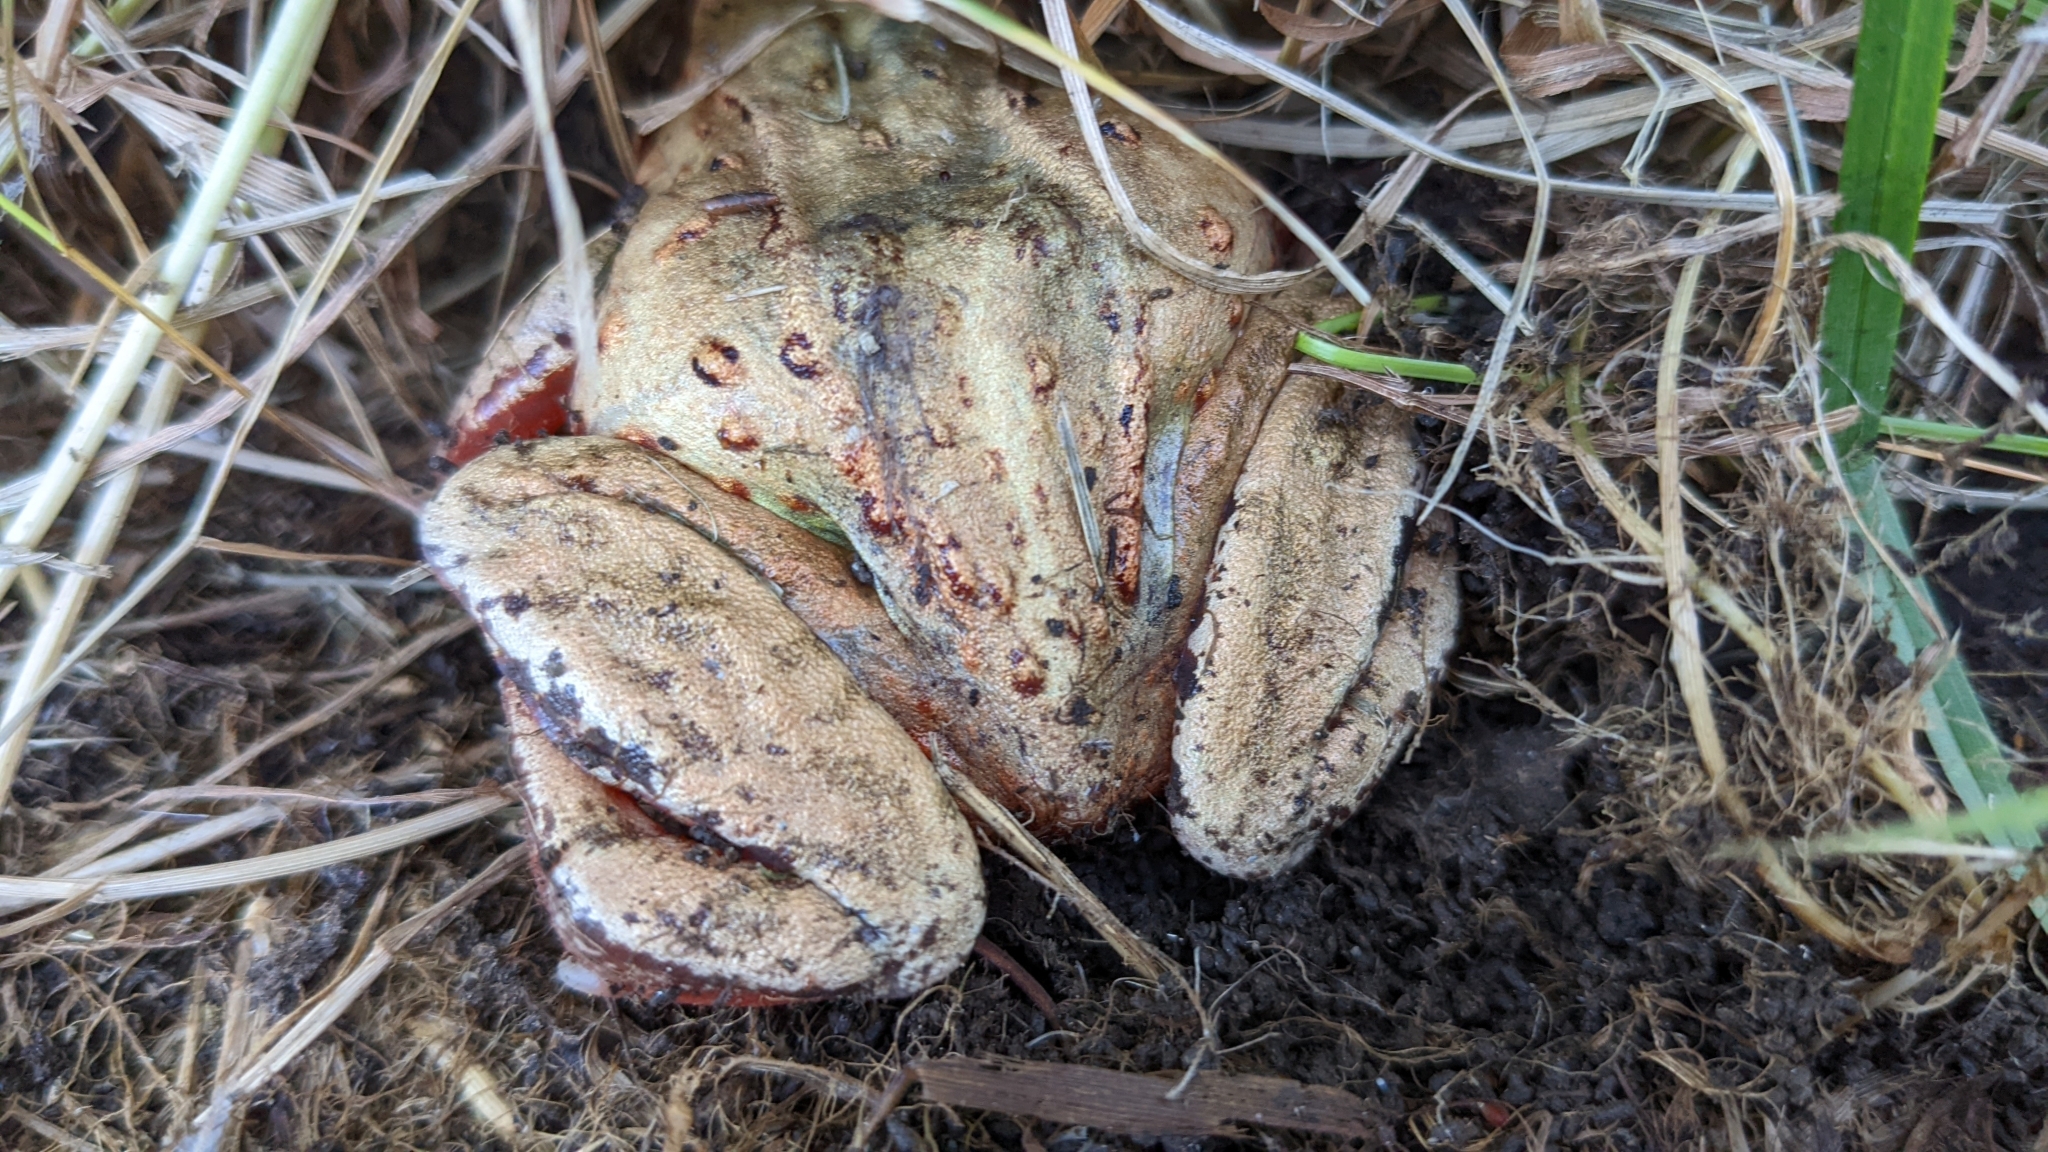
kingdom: Animalia
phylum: Chordata
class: Amphibia
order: Anura
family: Ranidae
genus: Rana
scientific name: Rana pirica
